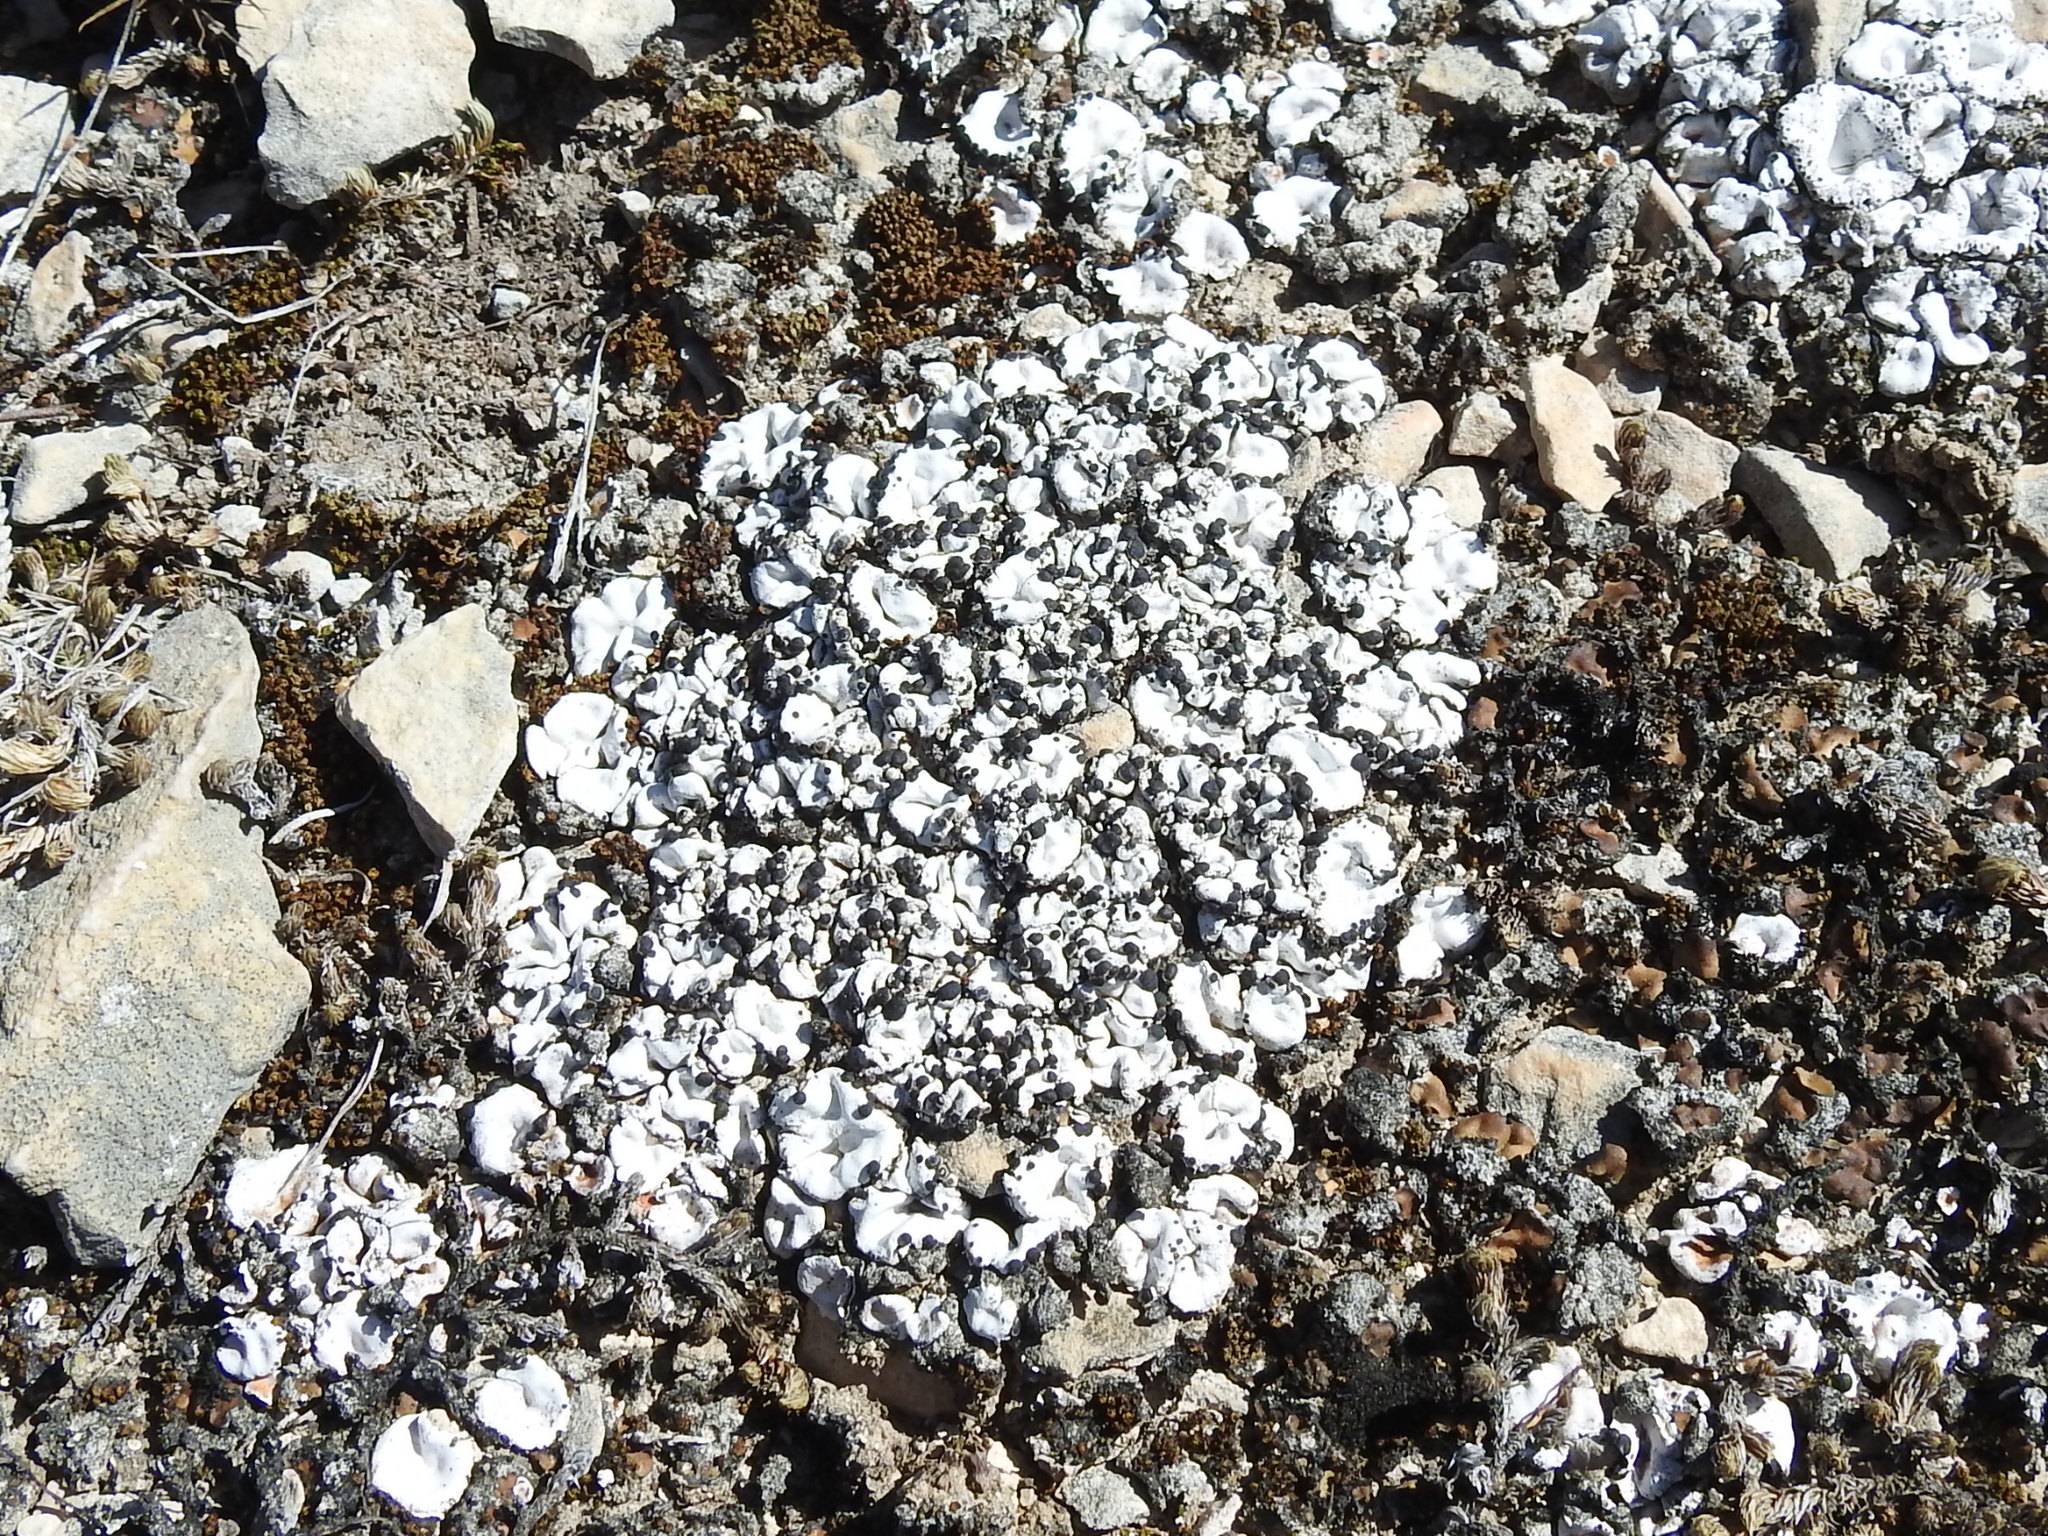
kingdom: Fungi
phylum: Ascomycota
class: Lecanoromycetes
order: Lecanorales
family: Psoraceae
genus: Psora
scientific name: Psora crenata
